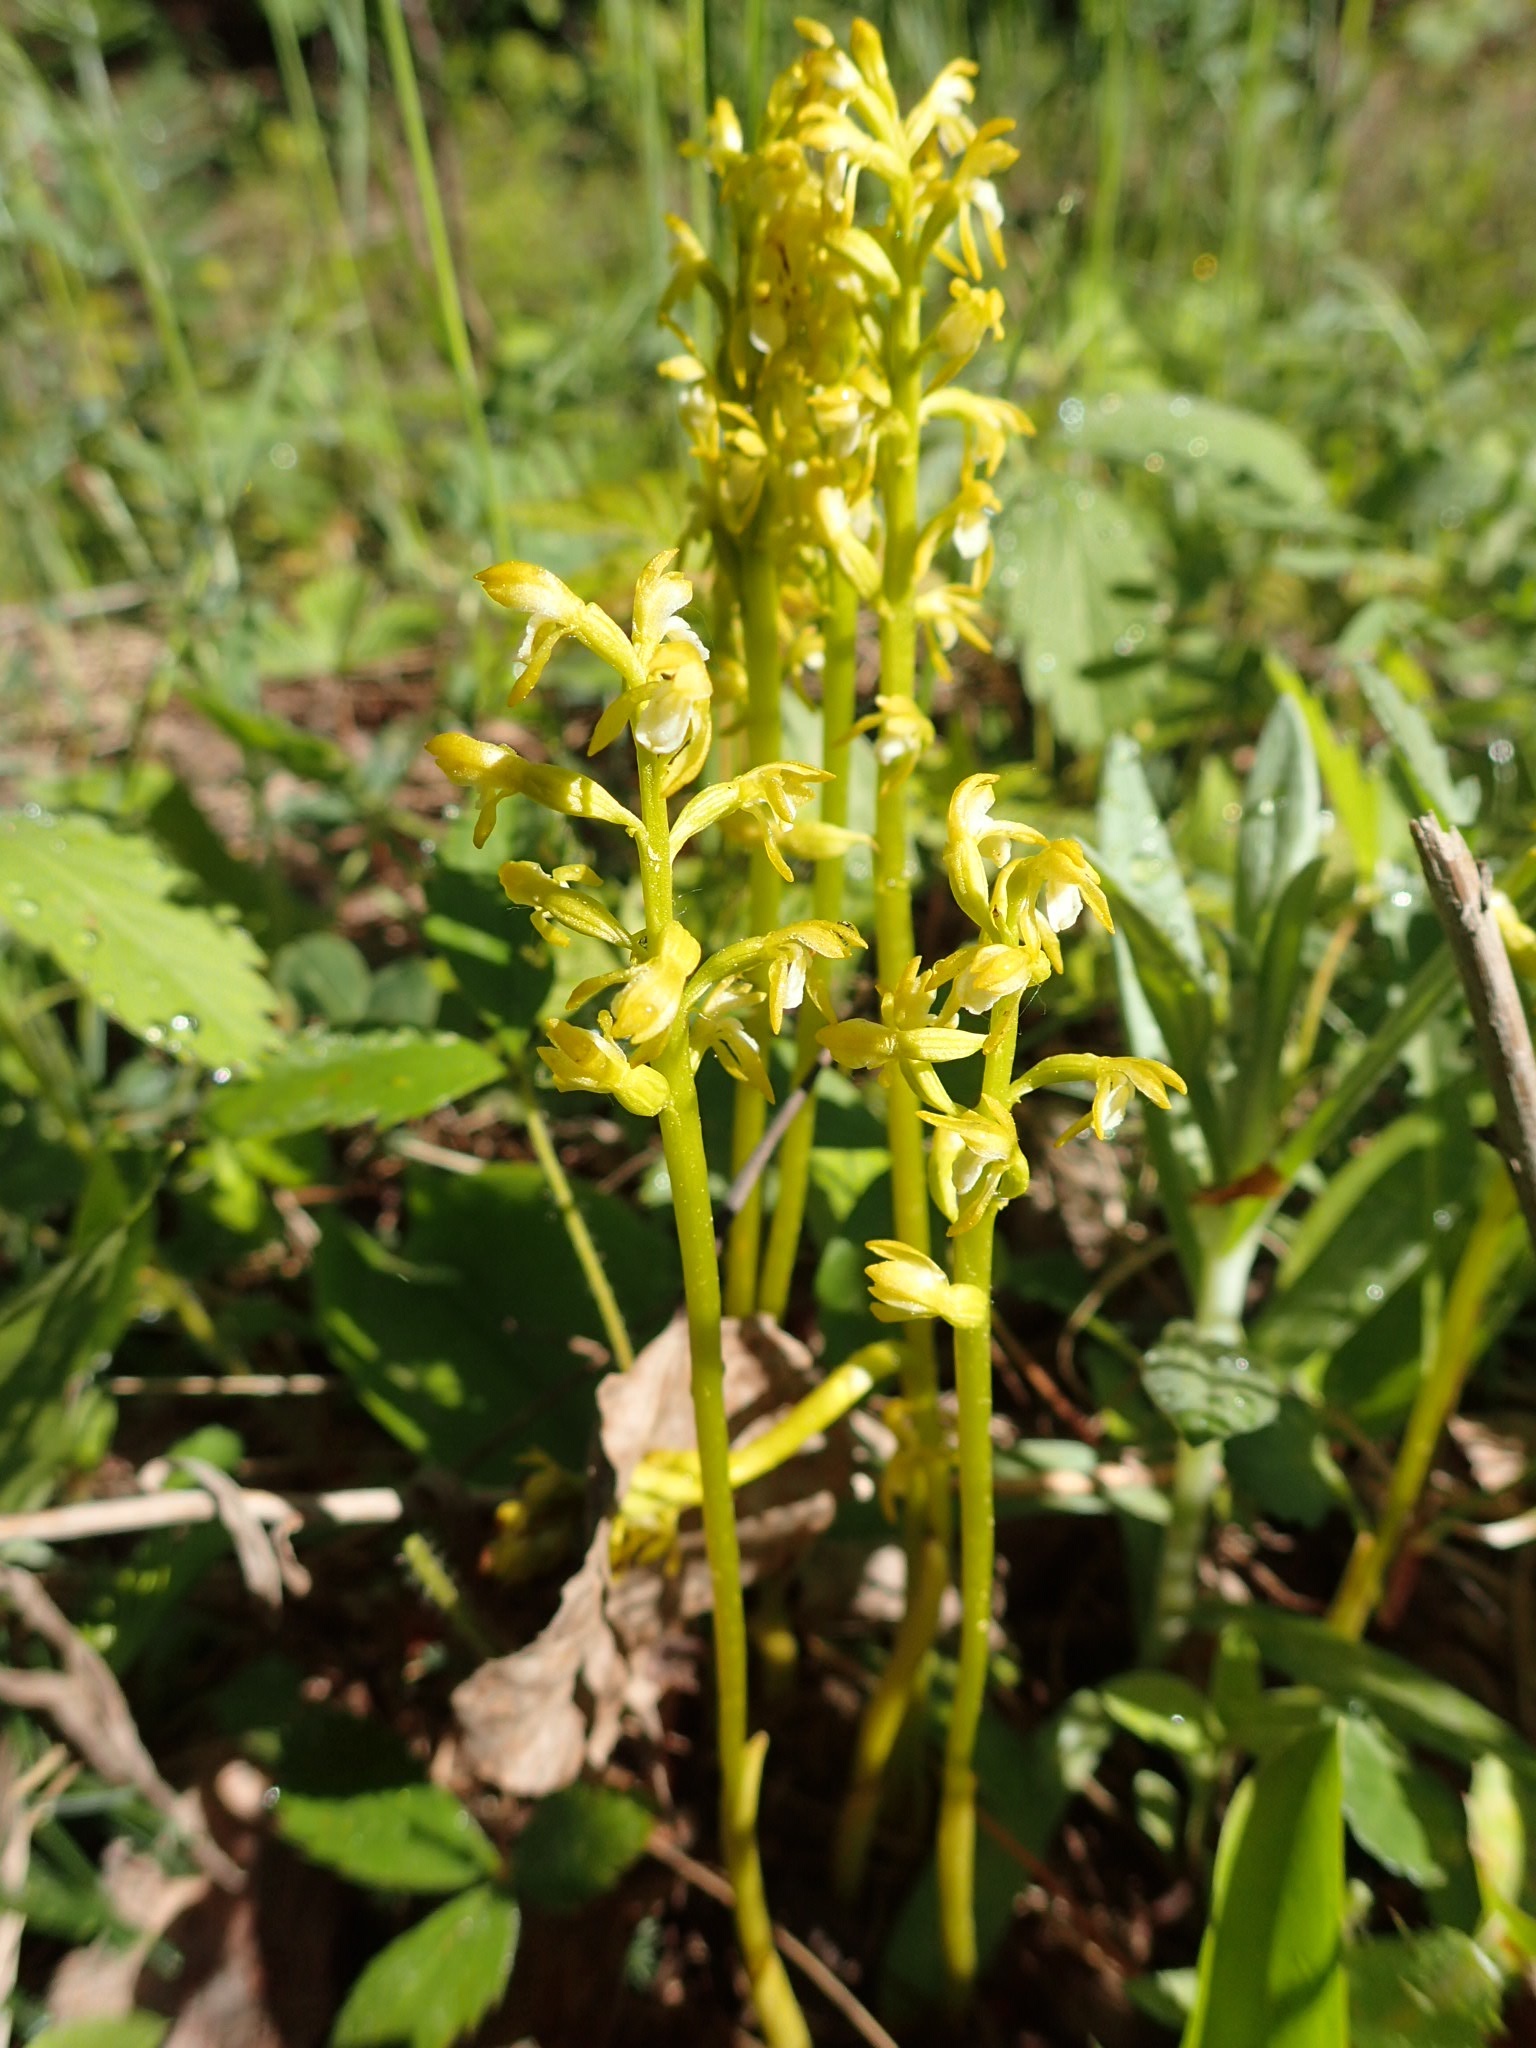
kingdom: Plantae
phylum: Tracheophyta
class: Liliopsida
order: Asparagales
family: Orchidaceae
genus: Corallorhiza
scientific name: Corallorhiza trifida
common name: Yellow coralroot
